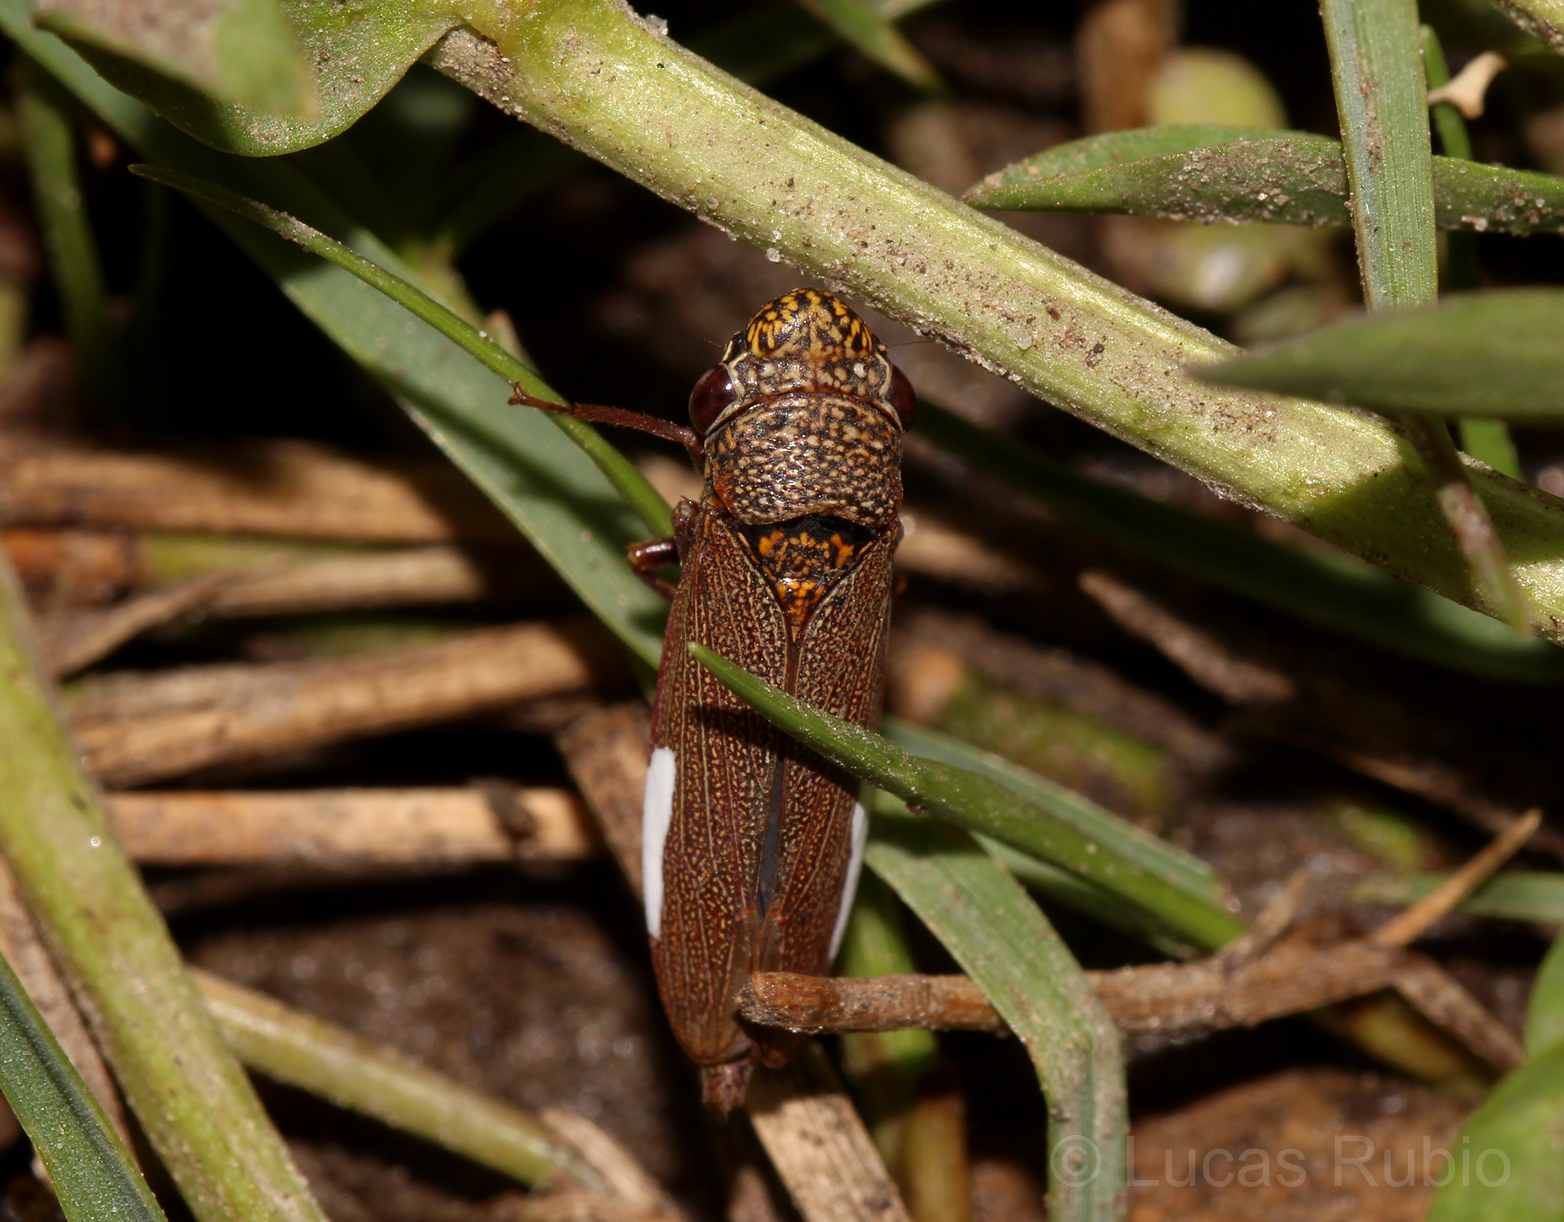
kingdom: Animalia
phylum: Arthropoda
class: Insecta
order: Hemiptera
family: Cicadellidae
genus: Tapajosa
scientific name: Tapajosa rubromarginata
